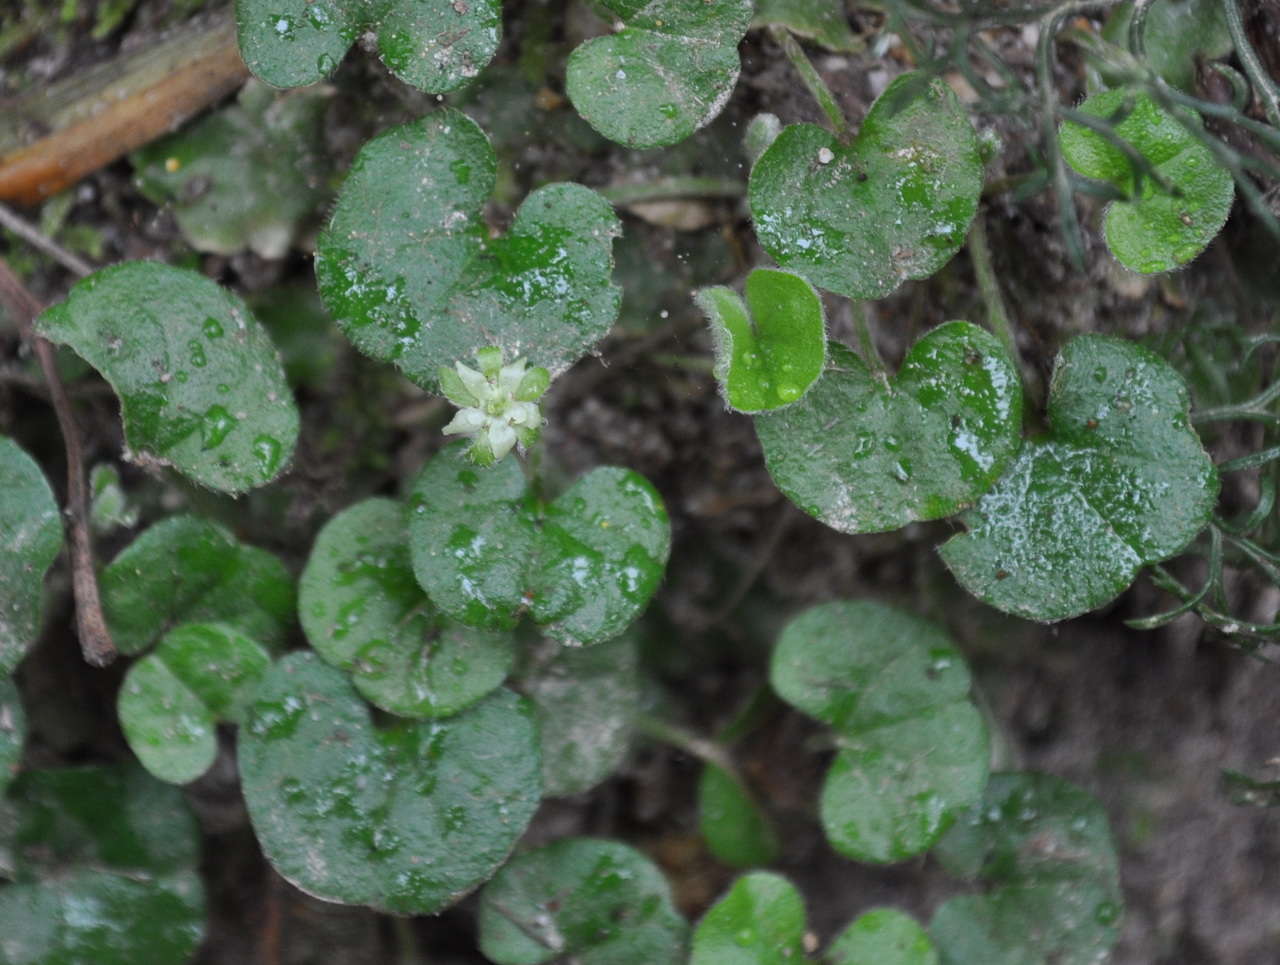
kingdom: Plantae
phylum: Tracheophyta
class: Magnoliopsida
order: Solanales
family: Convolvulaceae
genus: Dichondra
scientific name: Dichondra repens
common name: Kidneyweed
